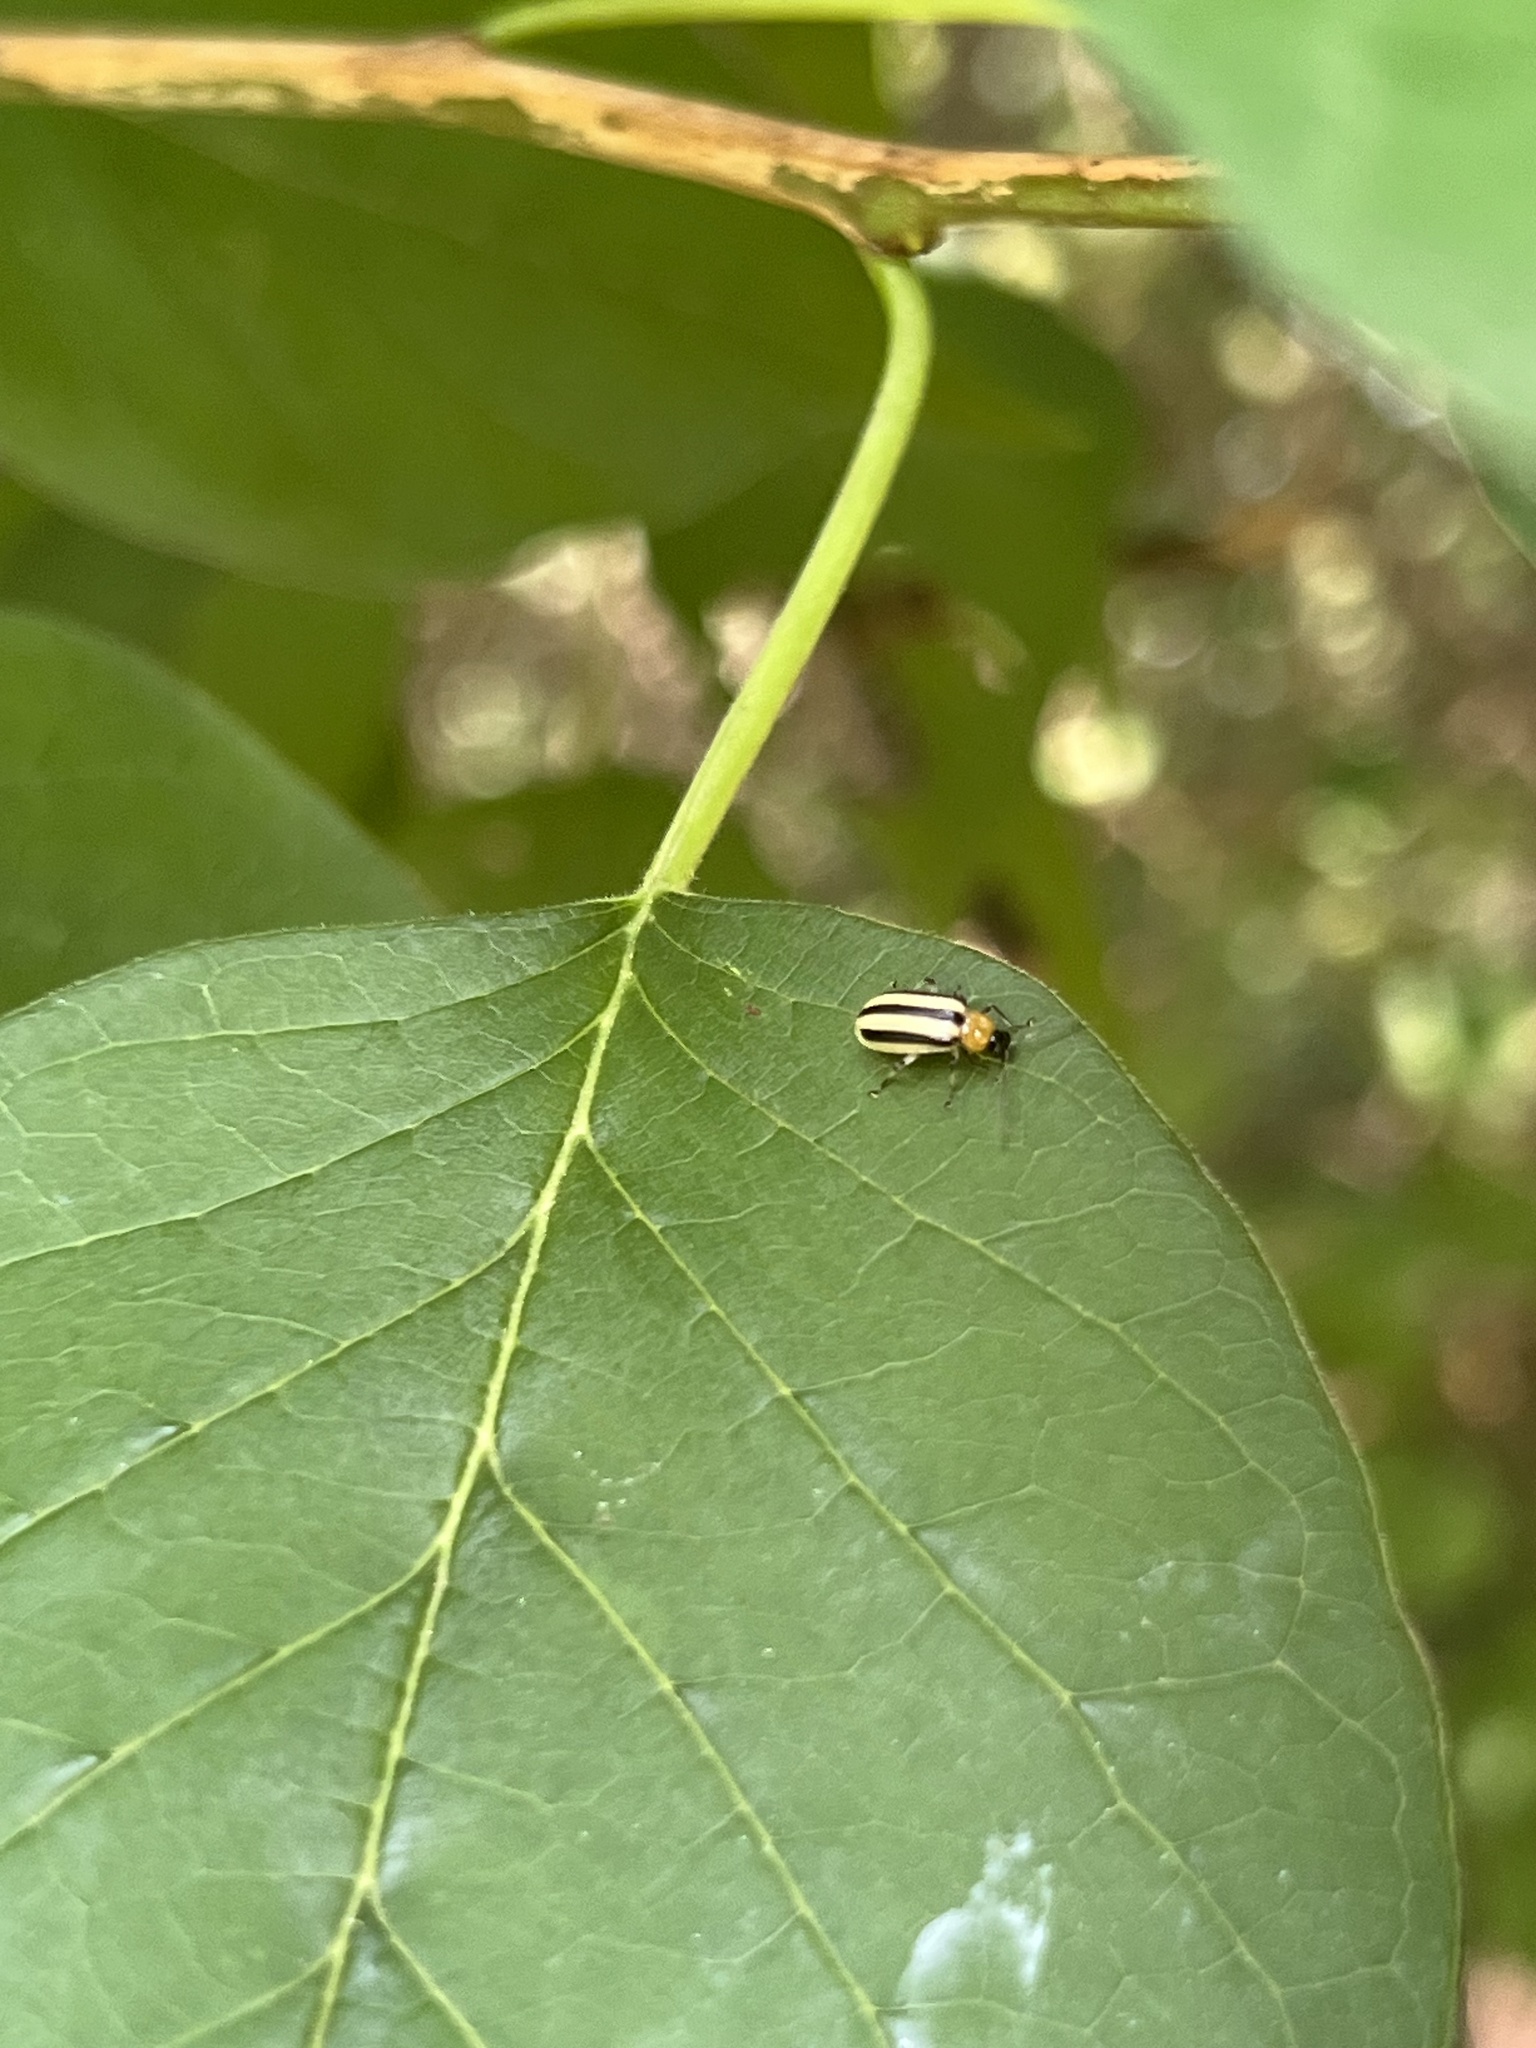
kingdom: Animalia
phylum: Arthropoda
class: Insecta
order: Coleoptera
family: Chrysomelidae
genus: Acalymma
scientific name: Acalymma vittatum
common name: Striped cucumber beetle
